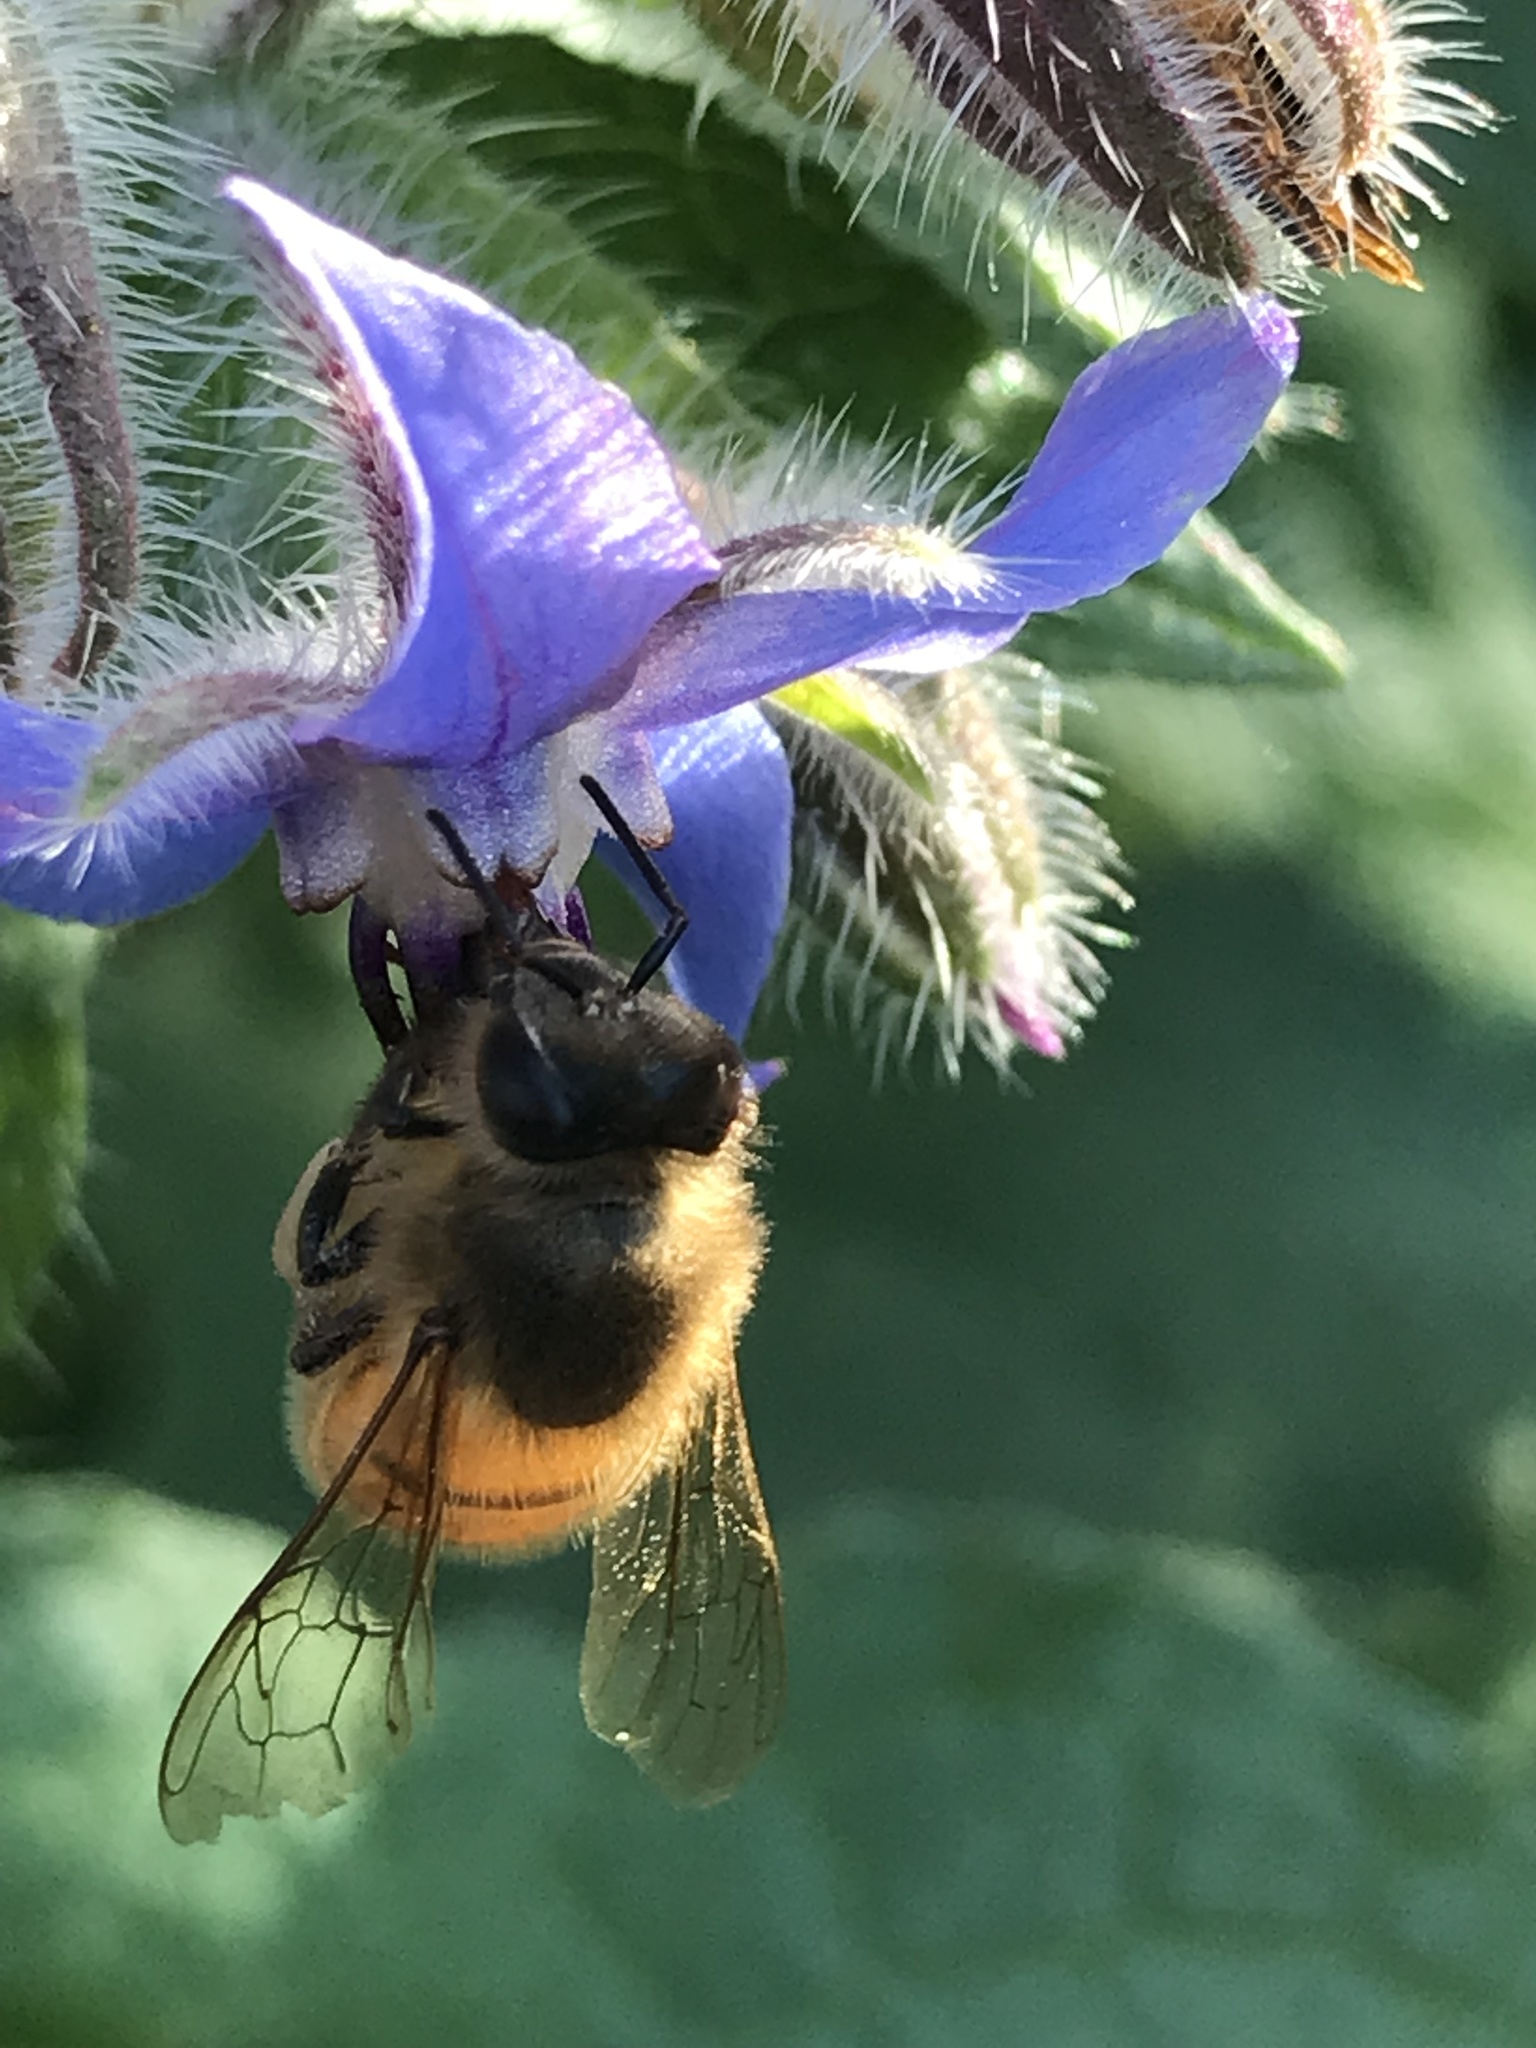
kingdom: Animalia
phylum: Arthropoda
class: Insecta
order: Hymenoptera
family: Apidae
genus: Apis
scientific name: Apis mellifera
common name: Honey bee
